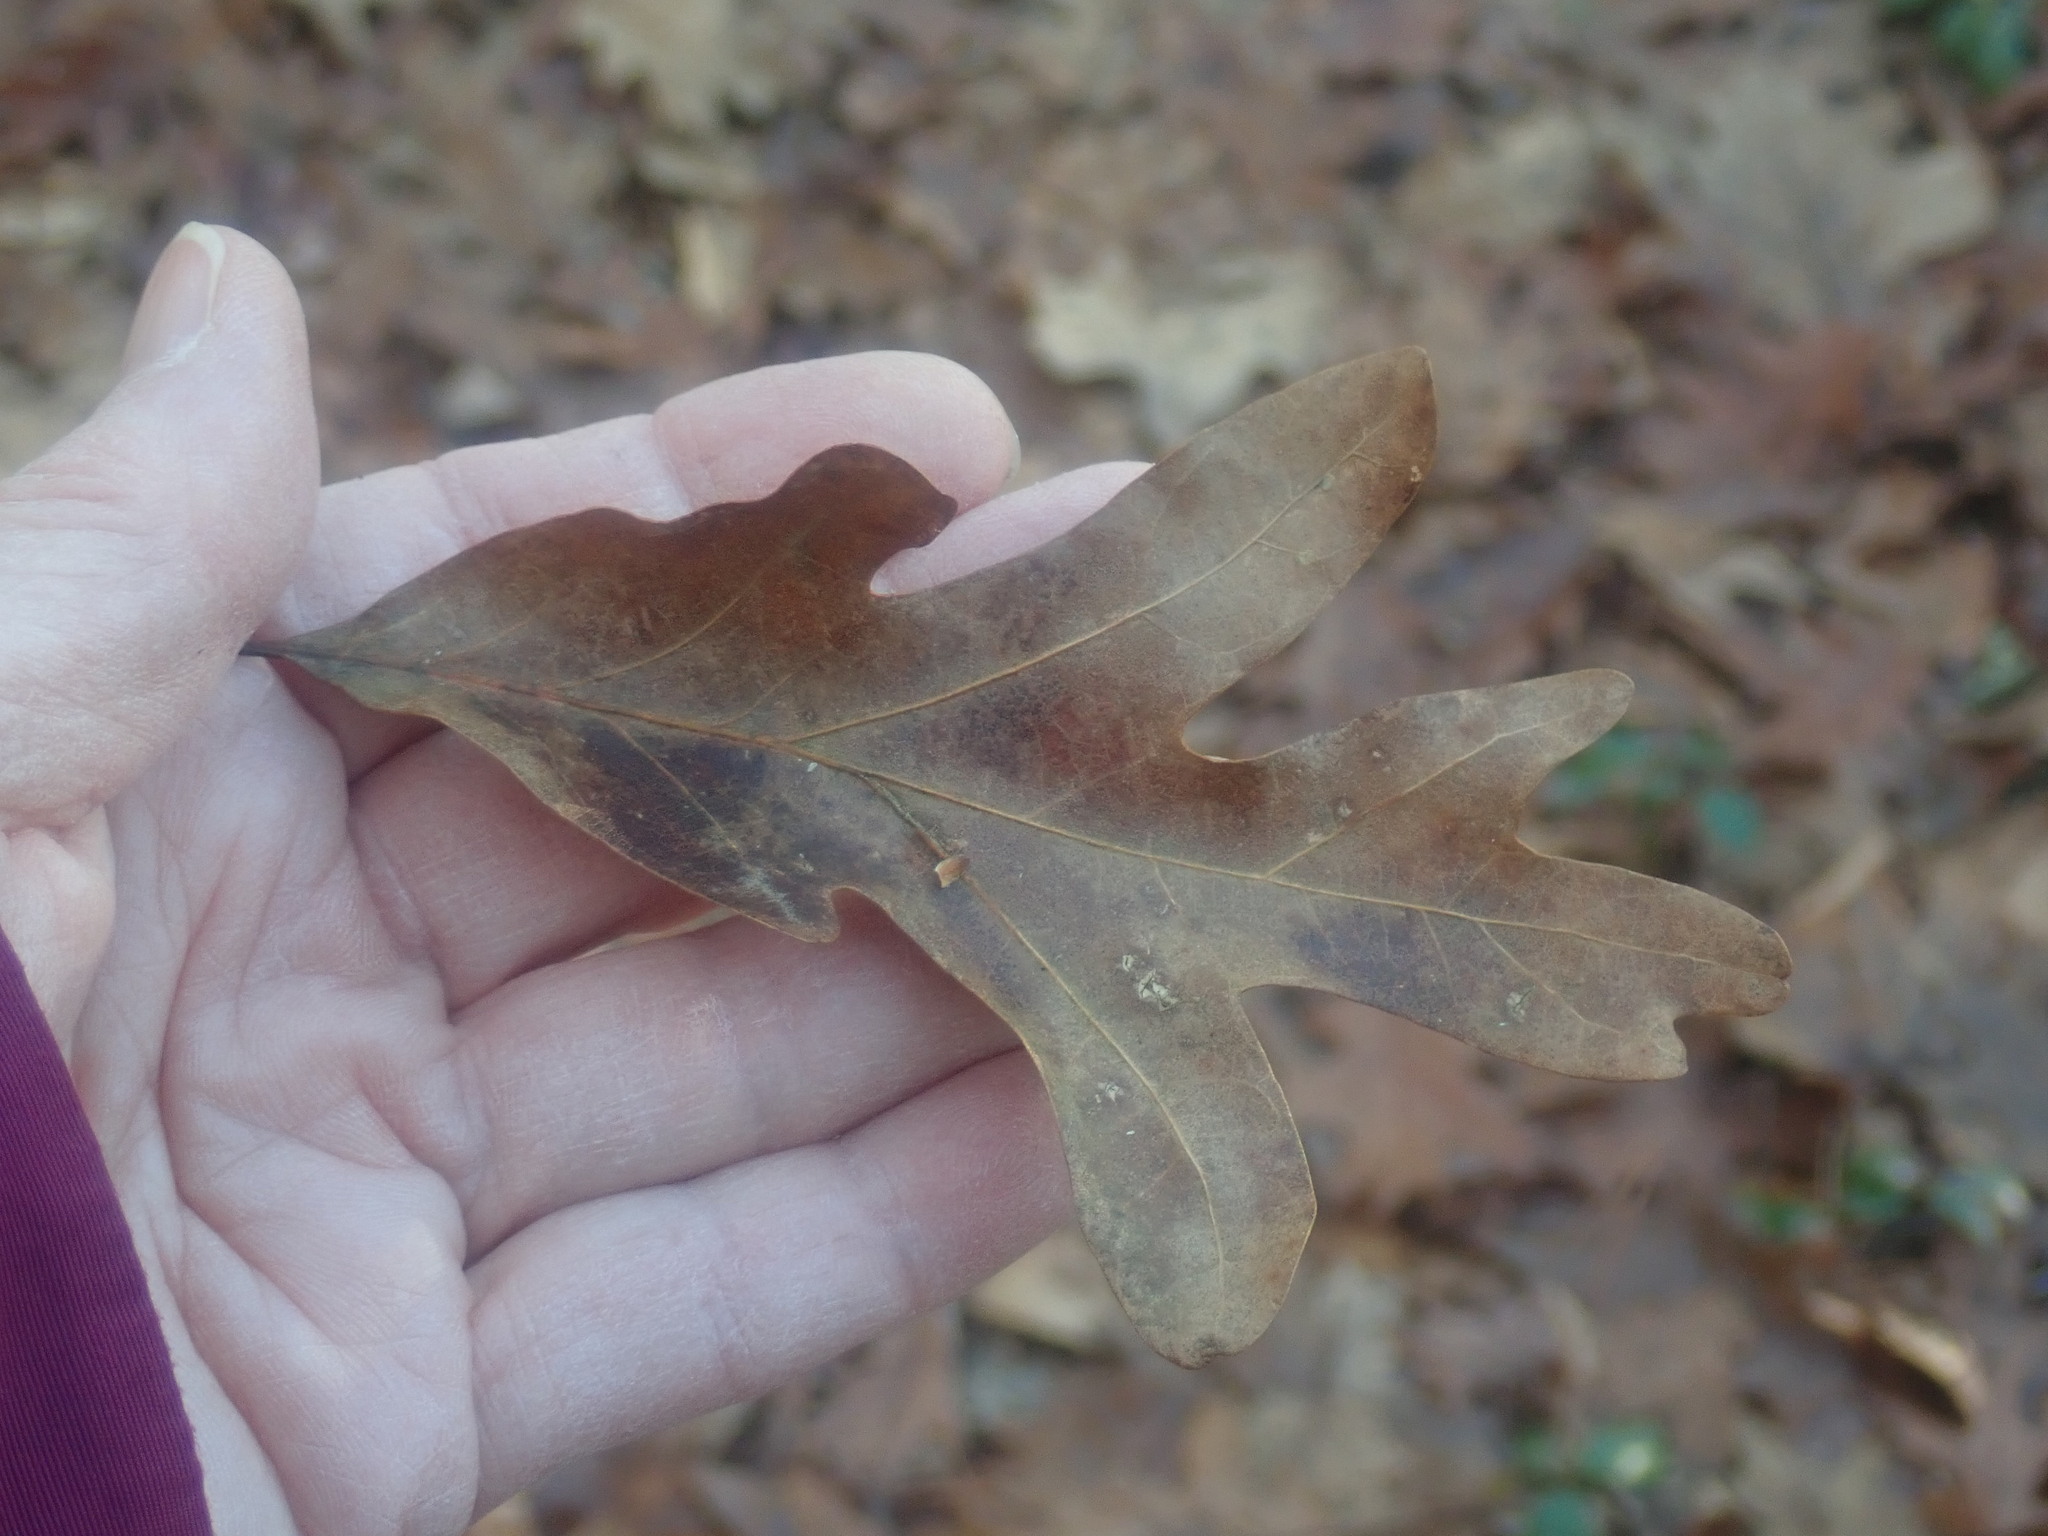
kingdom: Plantae
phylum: Tracheophyta
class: Magnoliopsida
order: Fagales
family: Fagaceae
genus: Quercus
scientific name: Quercus alba
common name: White oak
